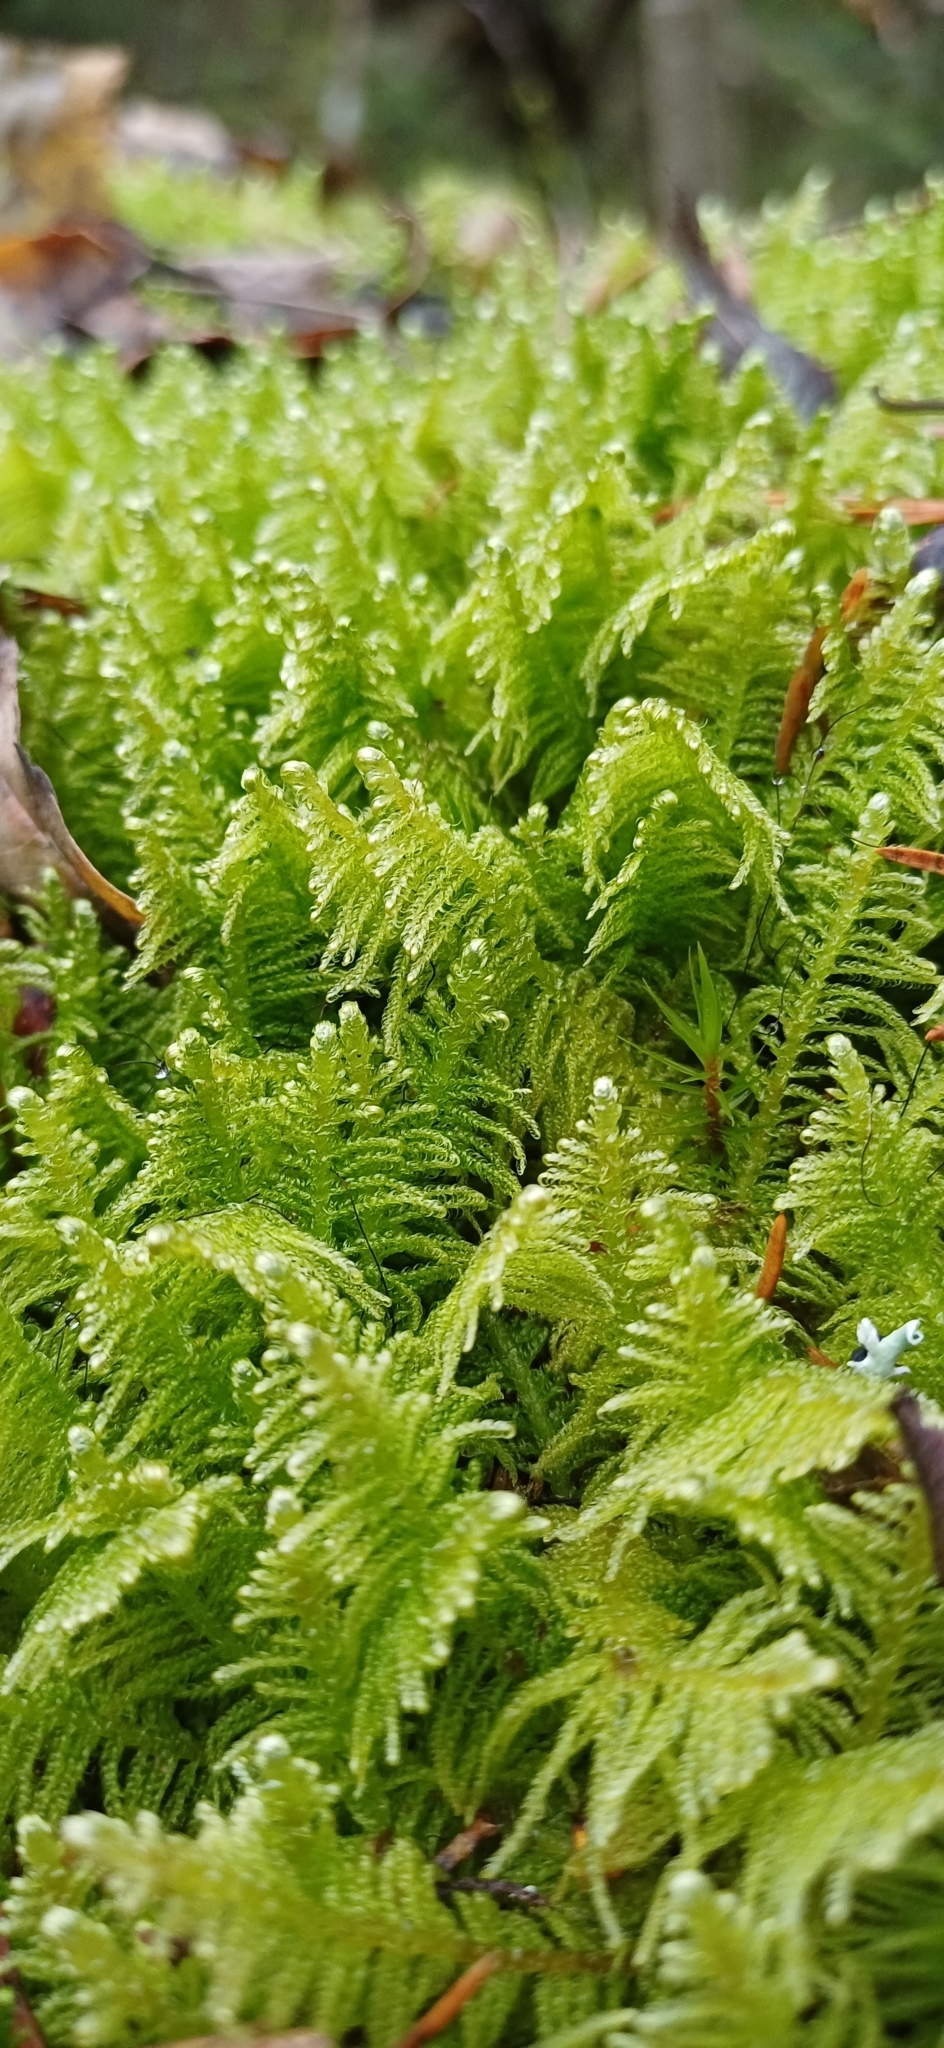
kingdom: Plantae
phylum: Bryophyta
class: Bryopsida
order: Hypnales
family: Pylaisiaceae
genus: Ptilium
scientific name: Ptilium crista-castrensis
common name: Knight's plume moss
